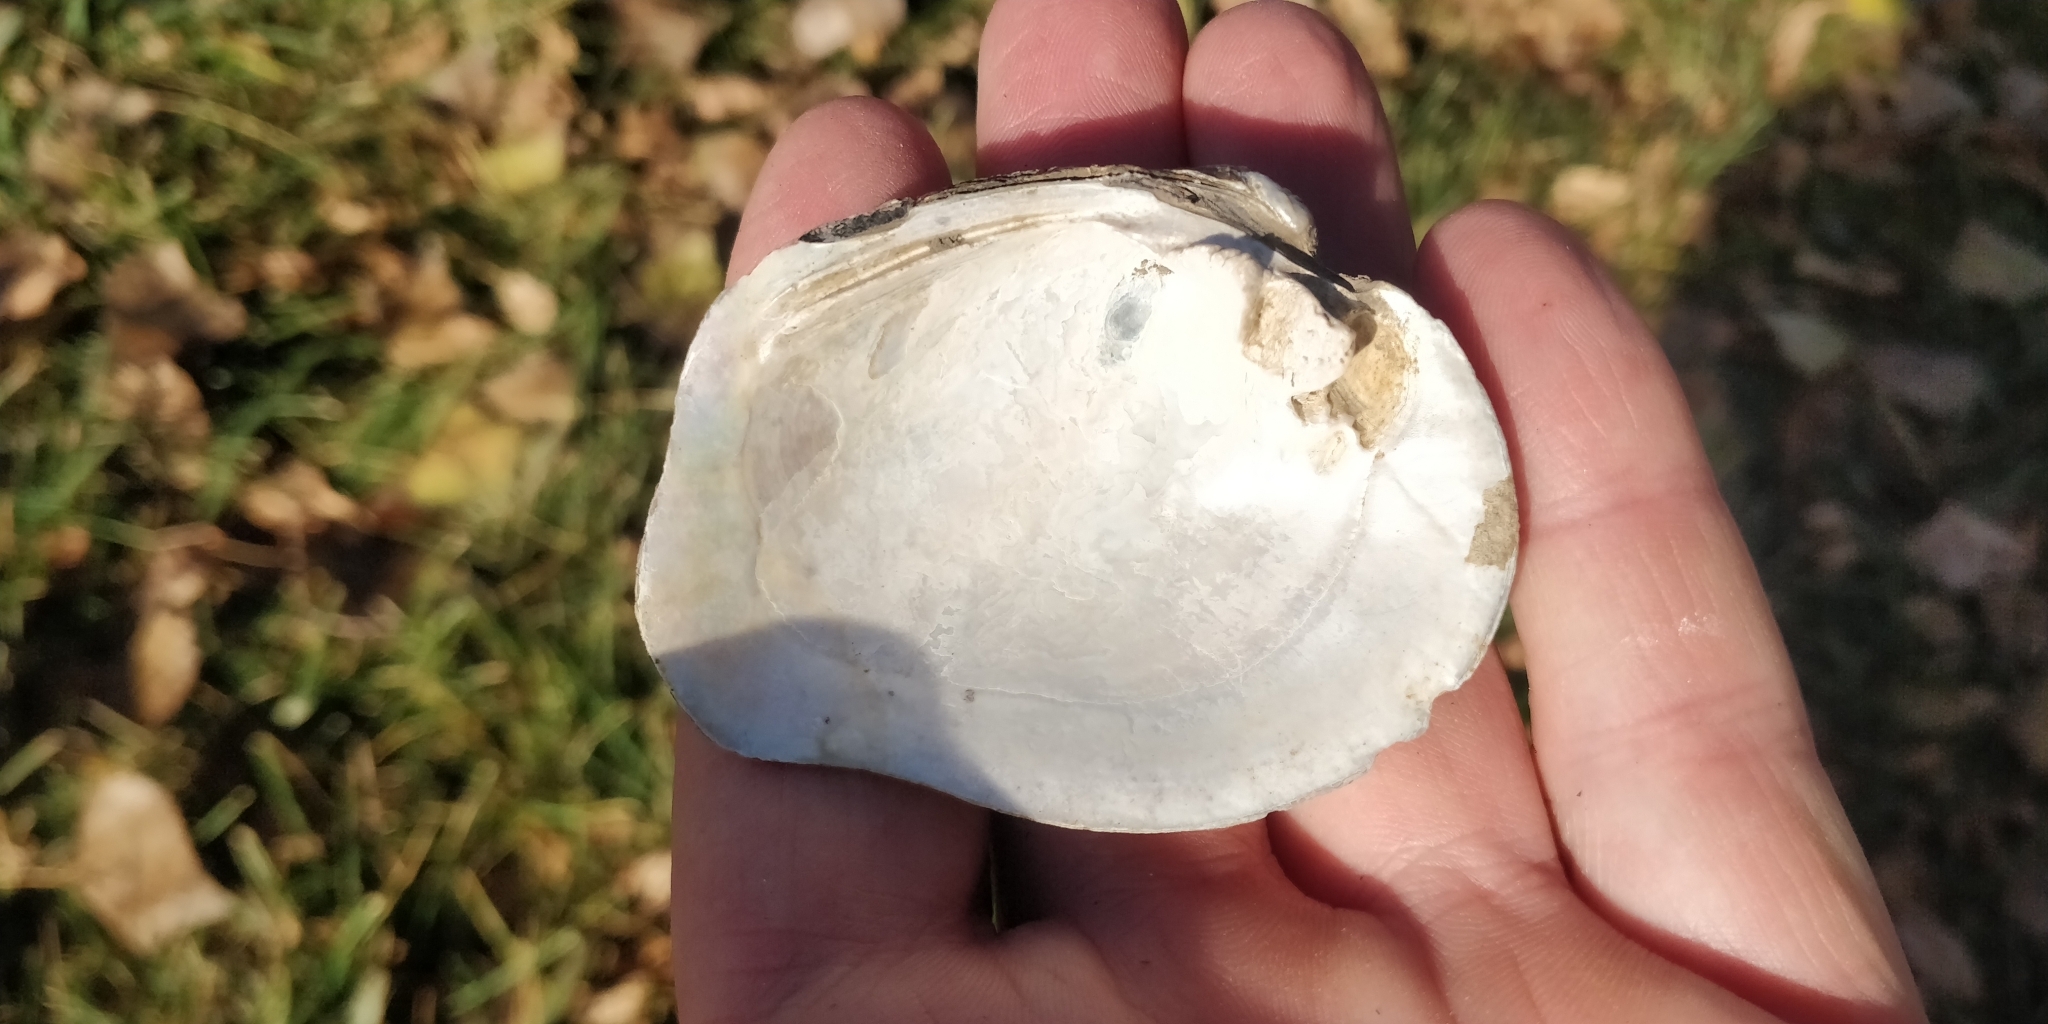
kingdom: Animalia
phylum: Mollusca
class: Bivalvia
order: Unionida
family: Unionidae
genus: Quadrula
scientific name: Quadrula quadrula
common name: Mapleleaf
